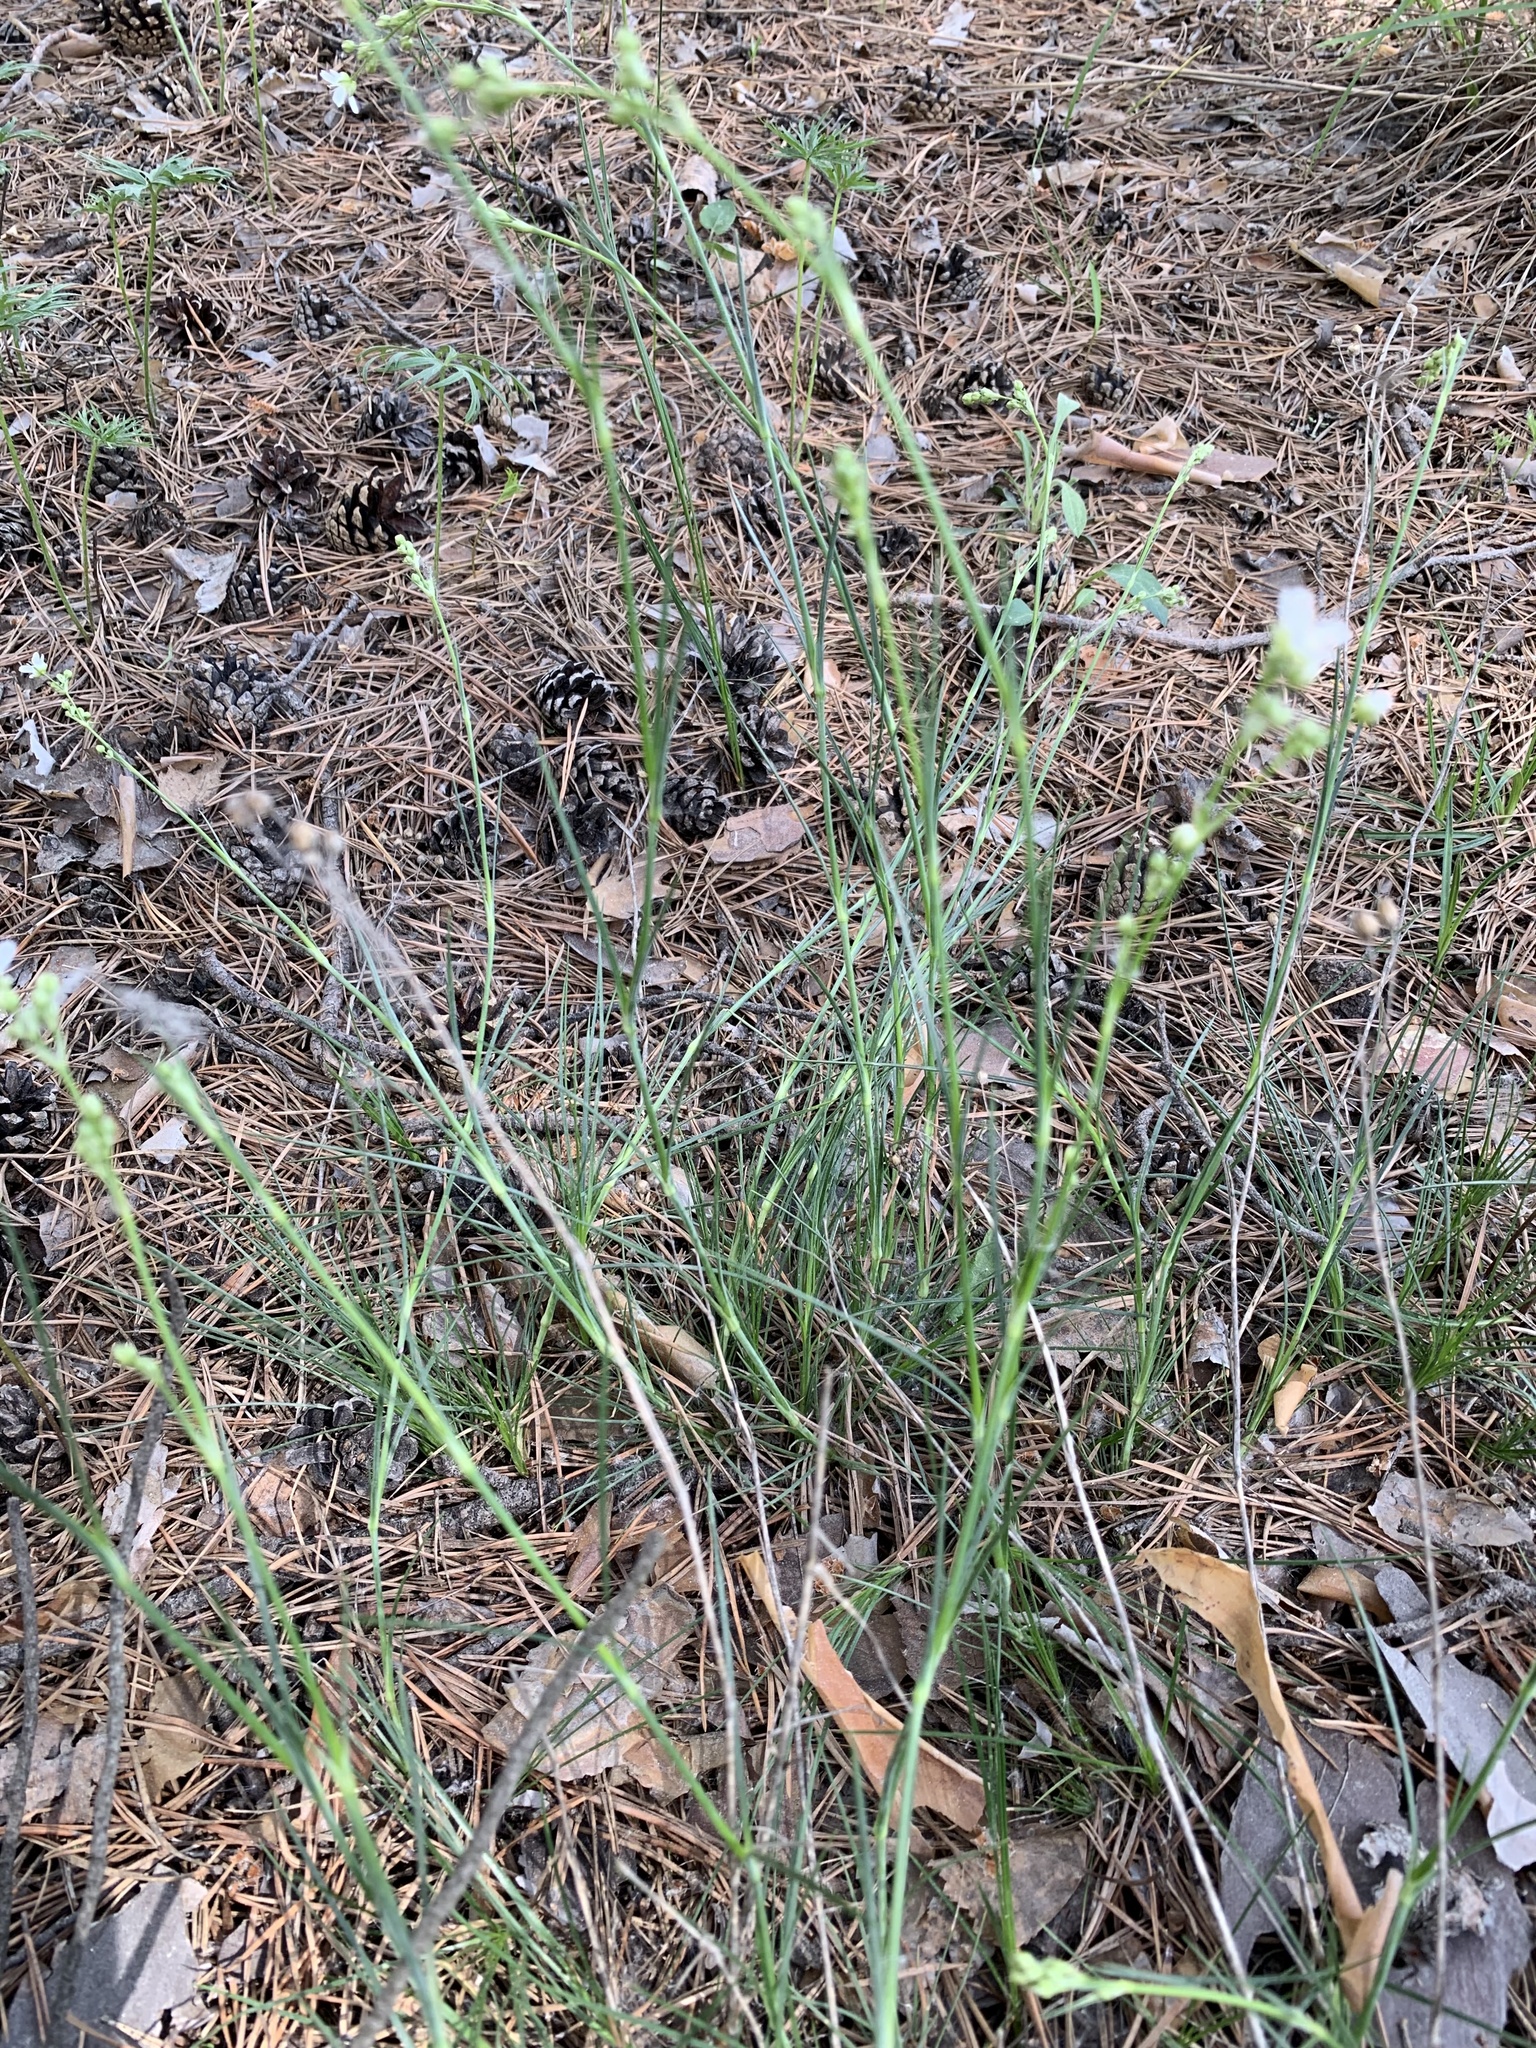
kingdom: Plantae
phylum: Tracheophyta
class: Magnoliopsida
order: Caryophyllales
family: Caryophyllaceae
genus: Eremogone
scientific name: Eremogone saxatilis
